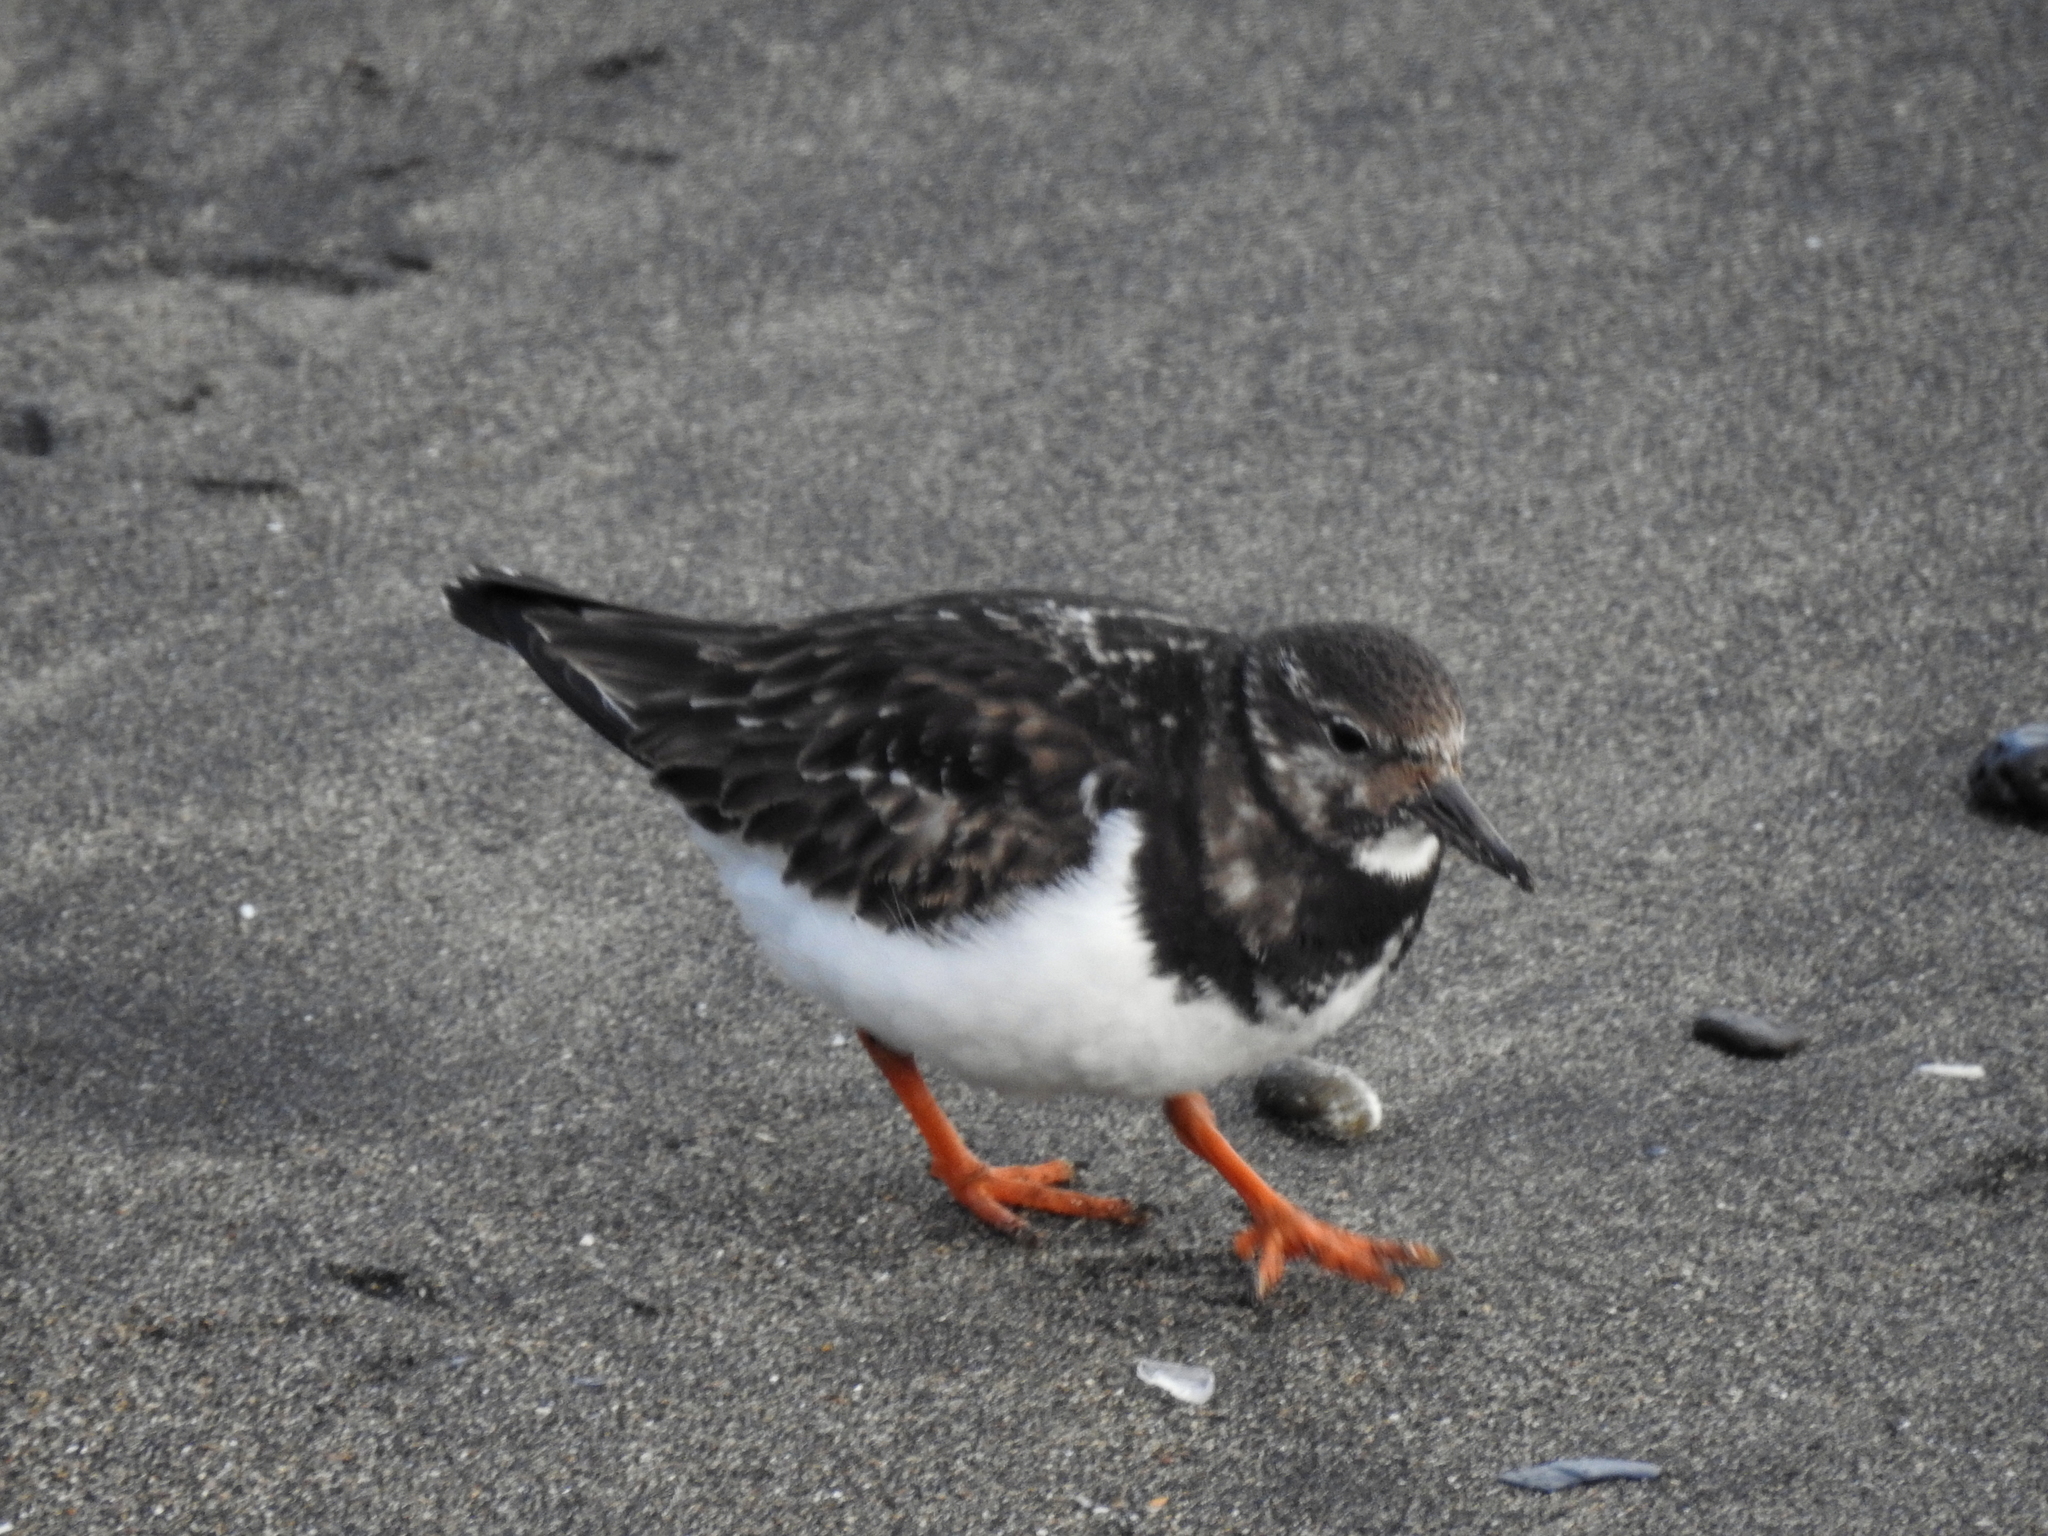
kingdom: Animalia
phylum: Chordata
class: Aves
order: Charadriiformes
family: Scolopacidae
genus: Arenaria
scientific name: Arenaria interpres
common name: Ruddy turnstone
